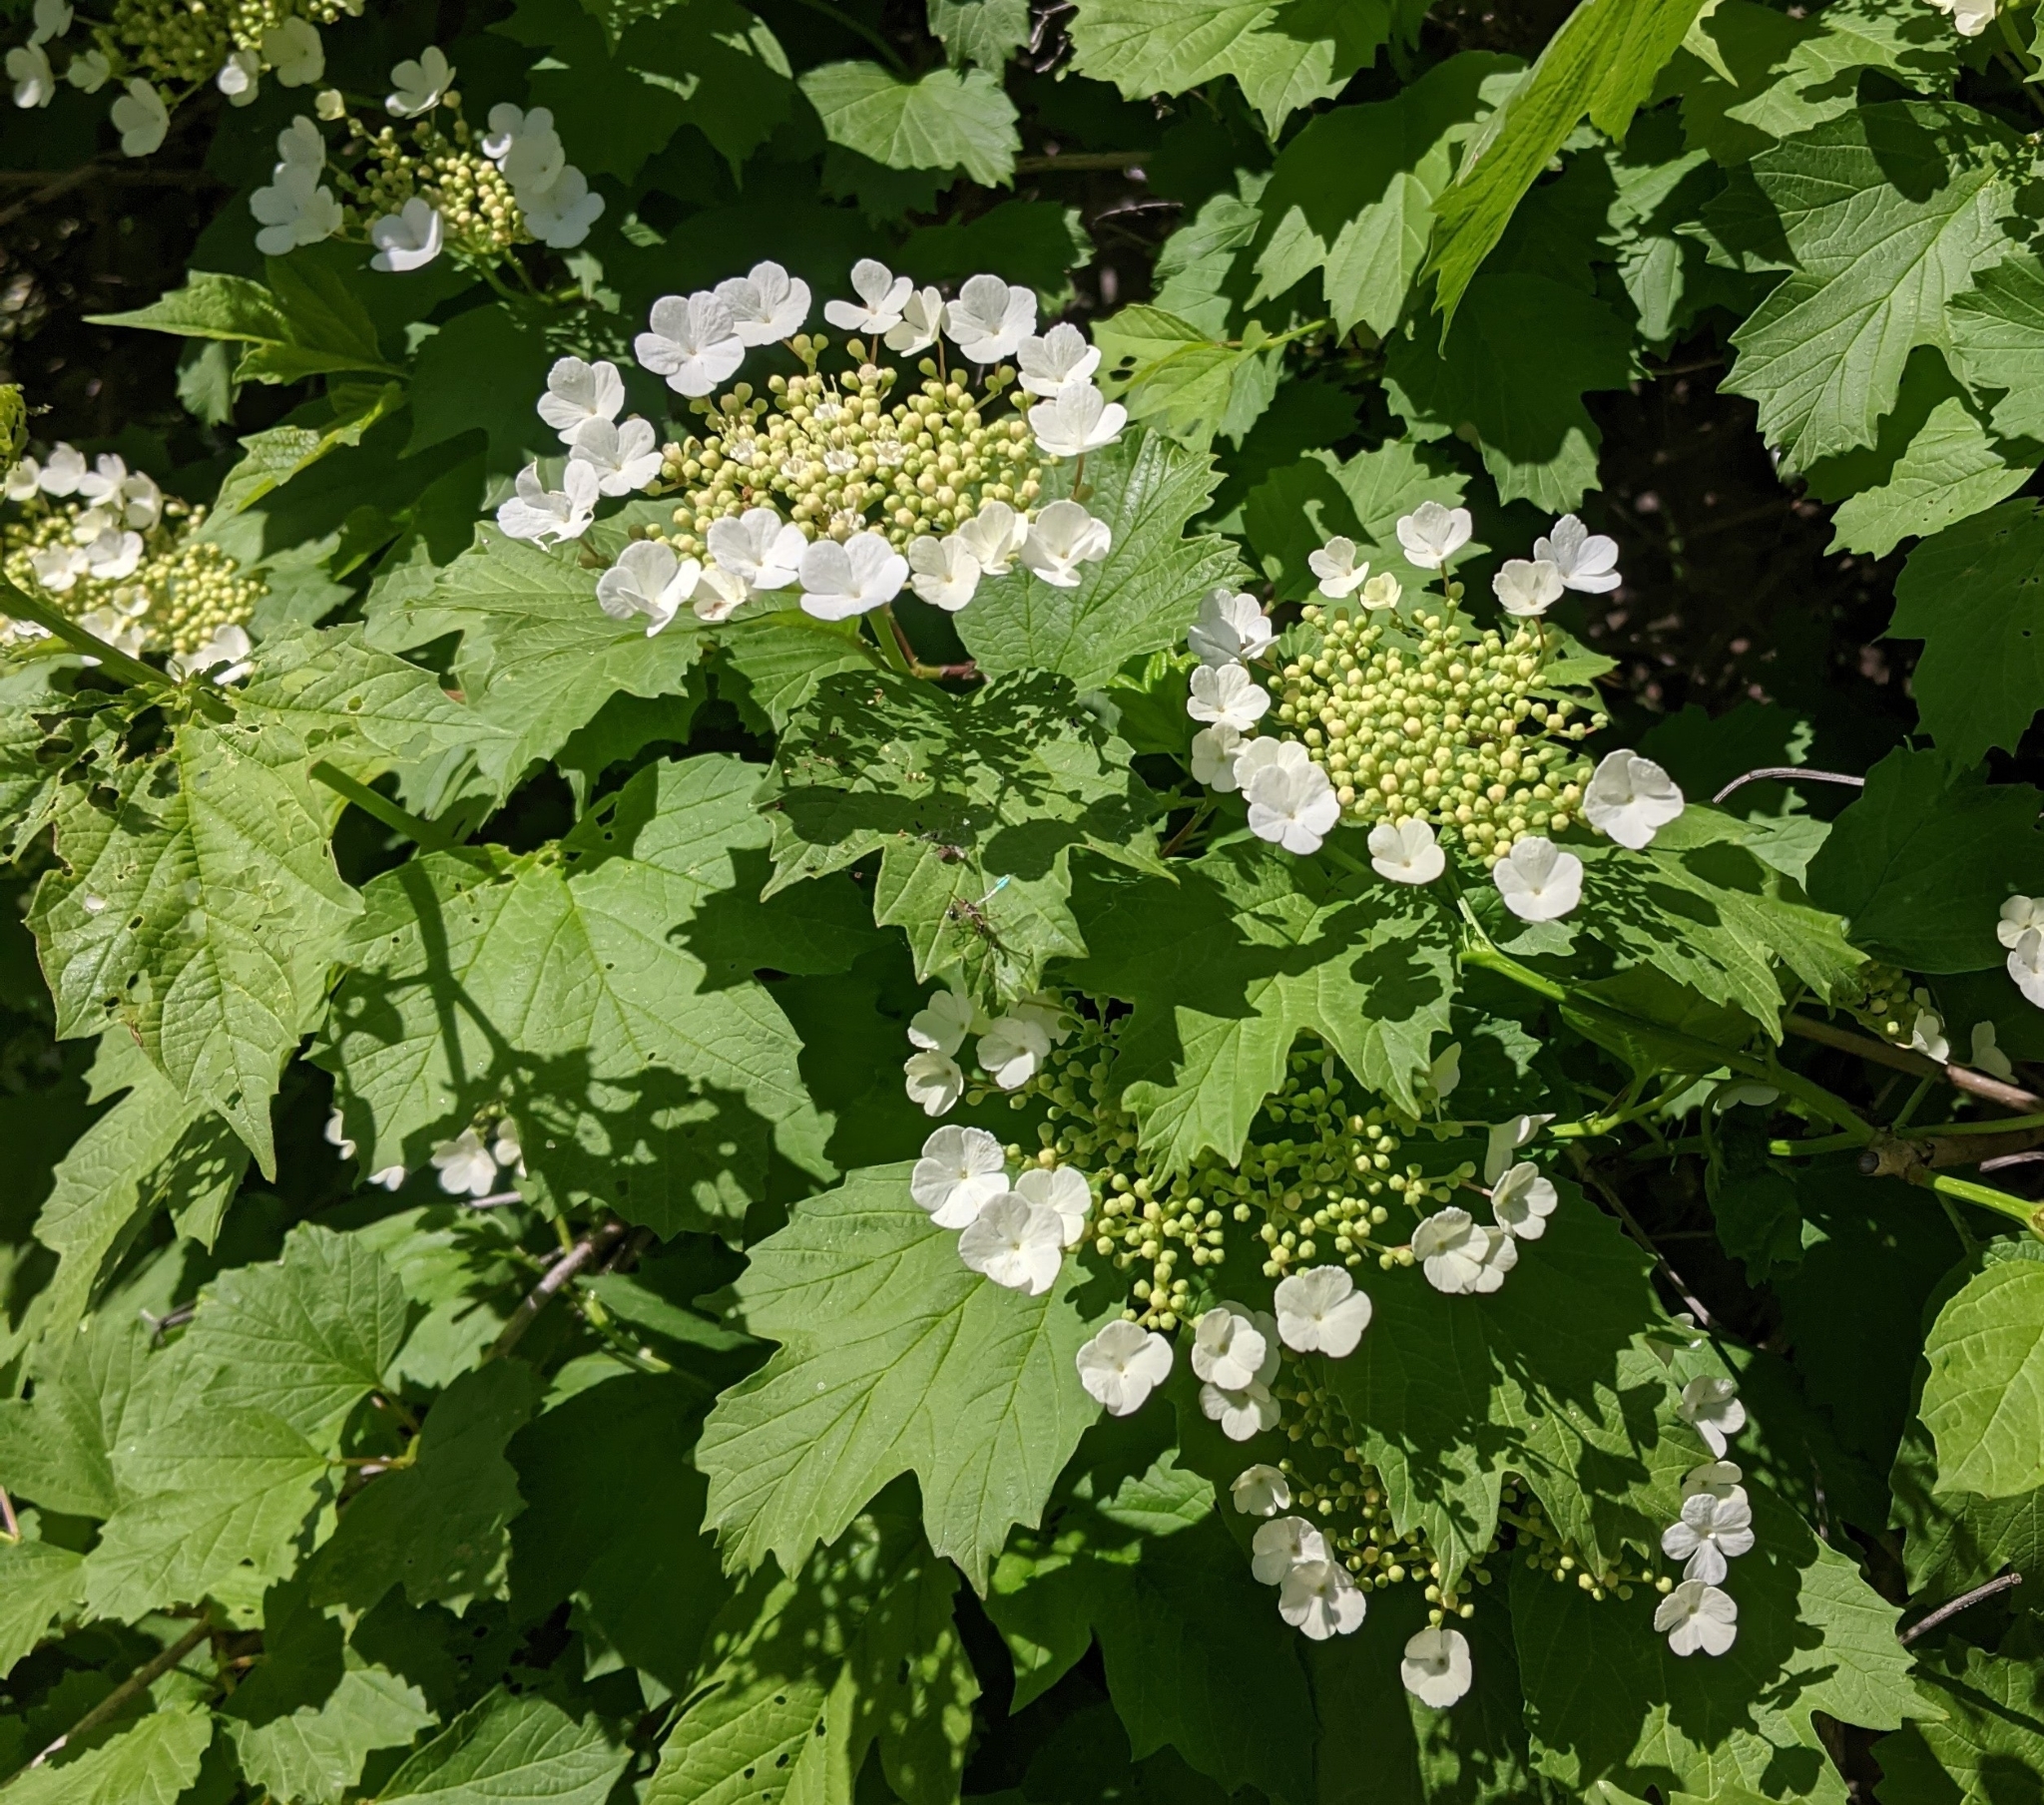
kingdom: Plantae
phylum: Tracheophyta
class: Magnoliopsida
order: Dipsacales
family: Viburnaceae
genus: Viburnum
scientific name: Viburnum opulus
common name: Guelder-rose
